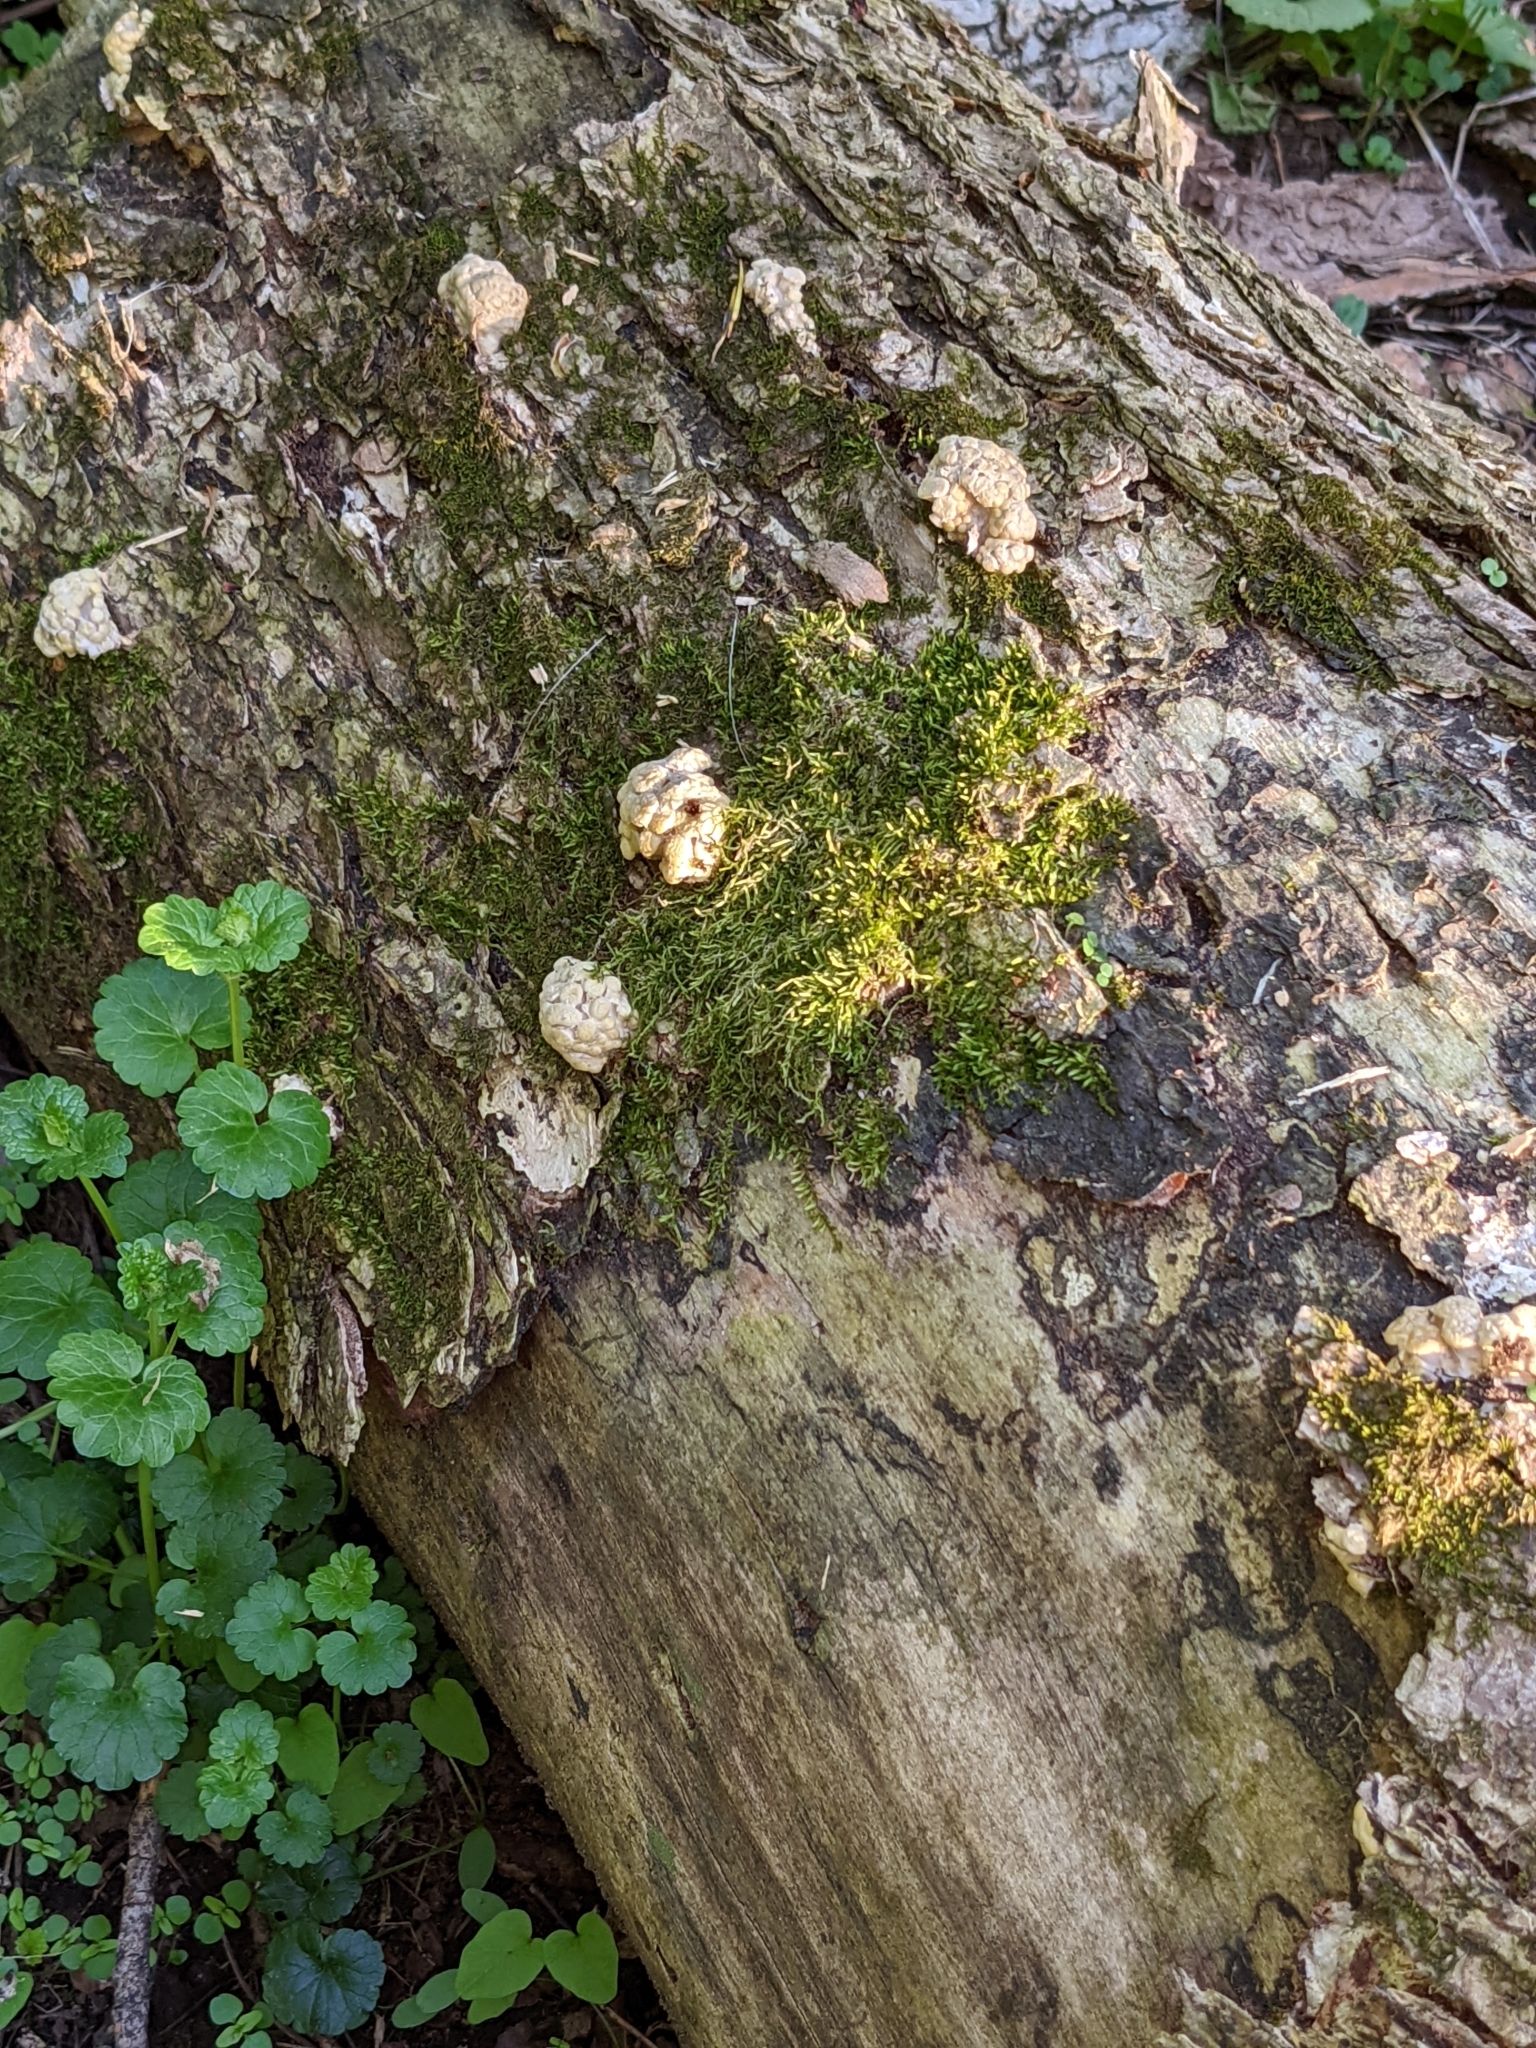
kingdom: Fungi
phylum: Basidiomycota
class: Agaricomycetes
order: Agaricales
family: Pleurotaceae
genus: Pleurotus
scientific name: Pleurotus citrinopileatus
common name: Golden oyster mushroom
